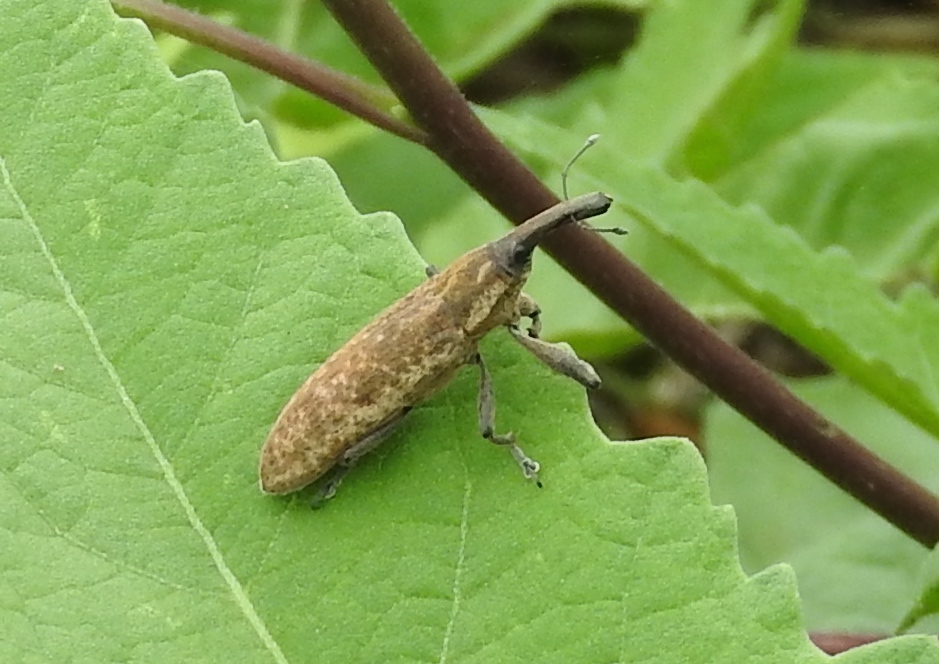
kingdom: Animalia
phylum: Arthropoda
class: Insecta
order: Coleoptera
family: Curculionidae
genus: Lixus
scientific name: Lixus
